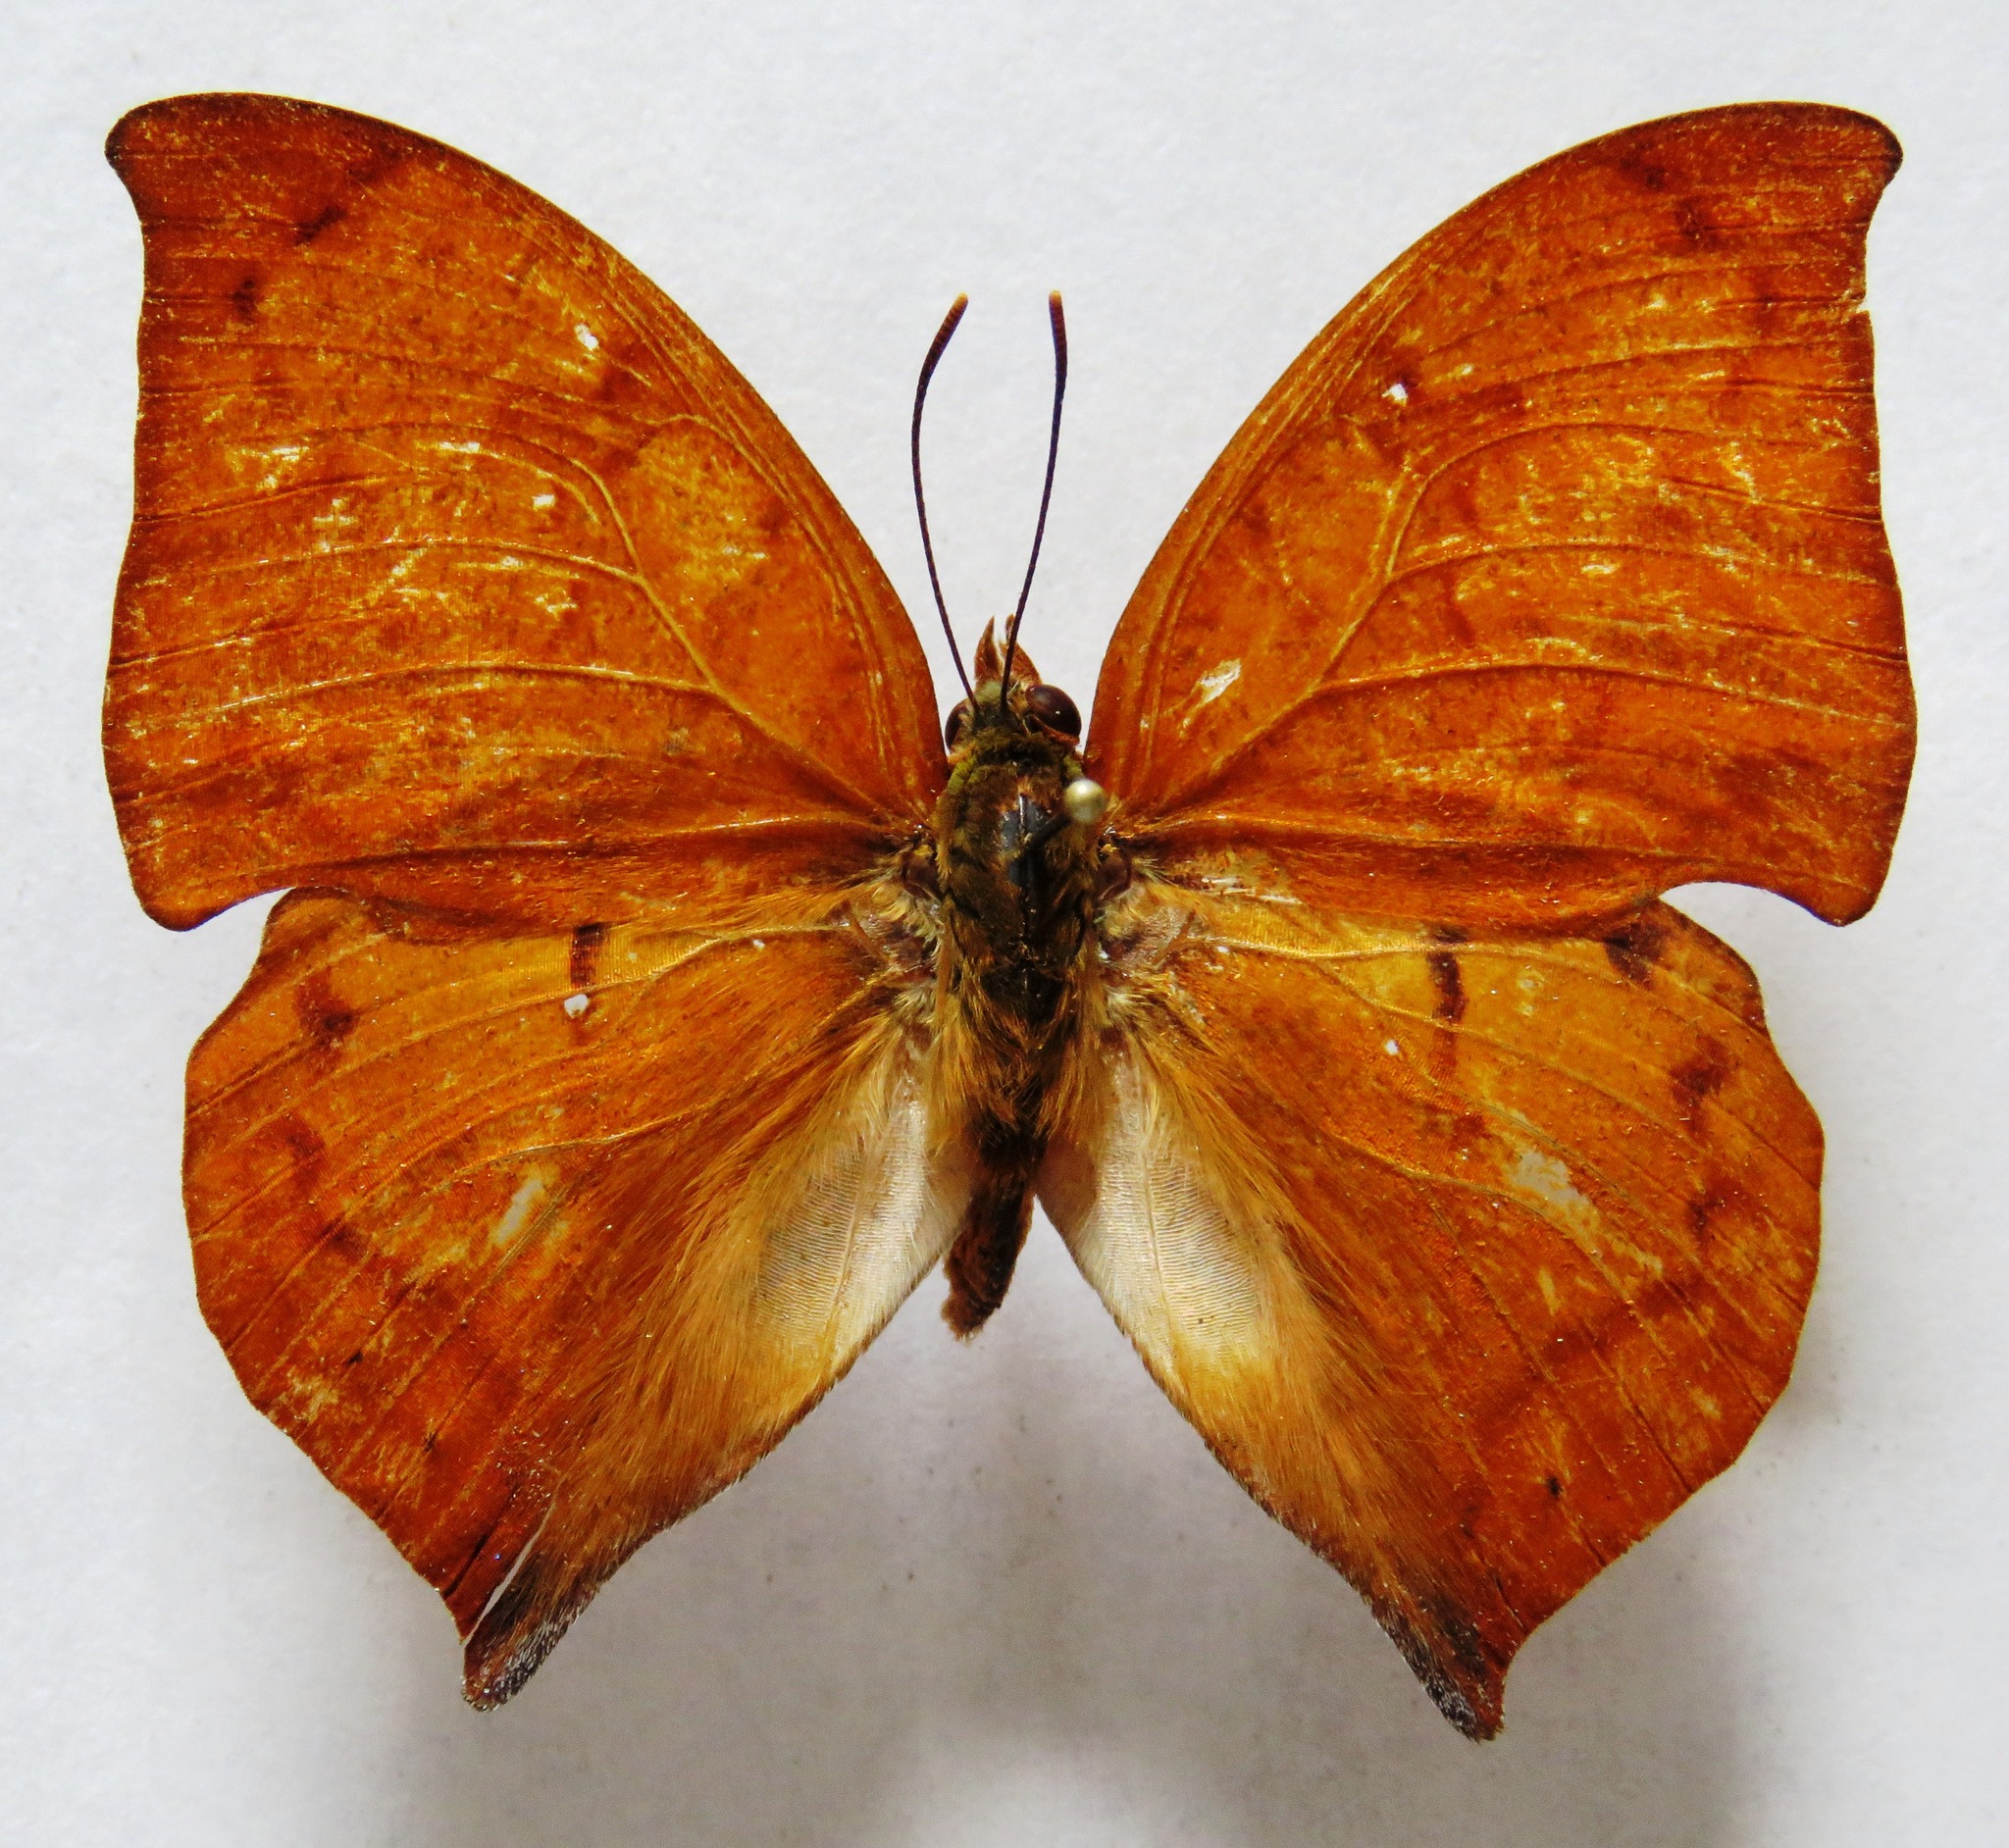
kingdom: Animalia
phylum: Arthropoda
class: Insecta
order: Lepidoptera
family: Nymphalidae
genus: Zaretis
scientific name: Zaretis itys
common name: Skeletonized leafwing
